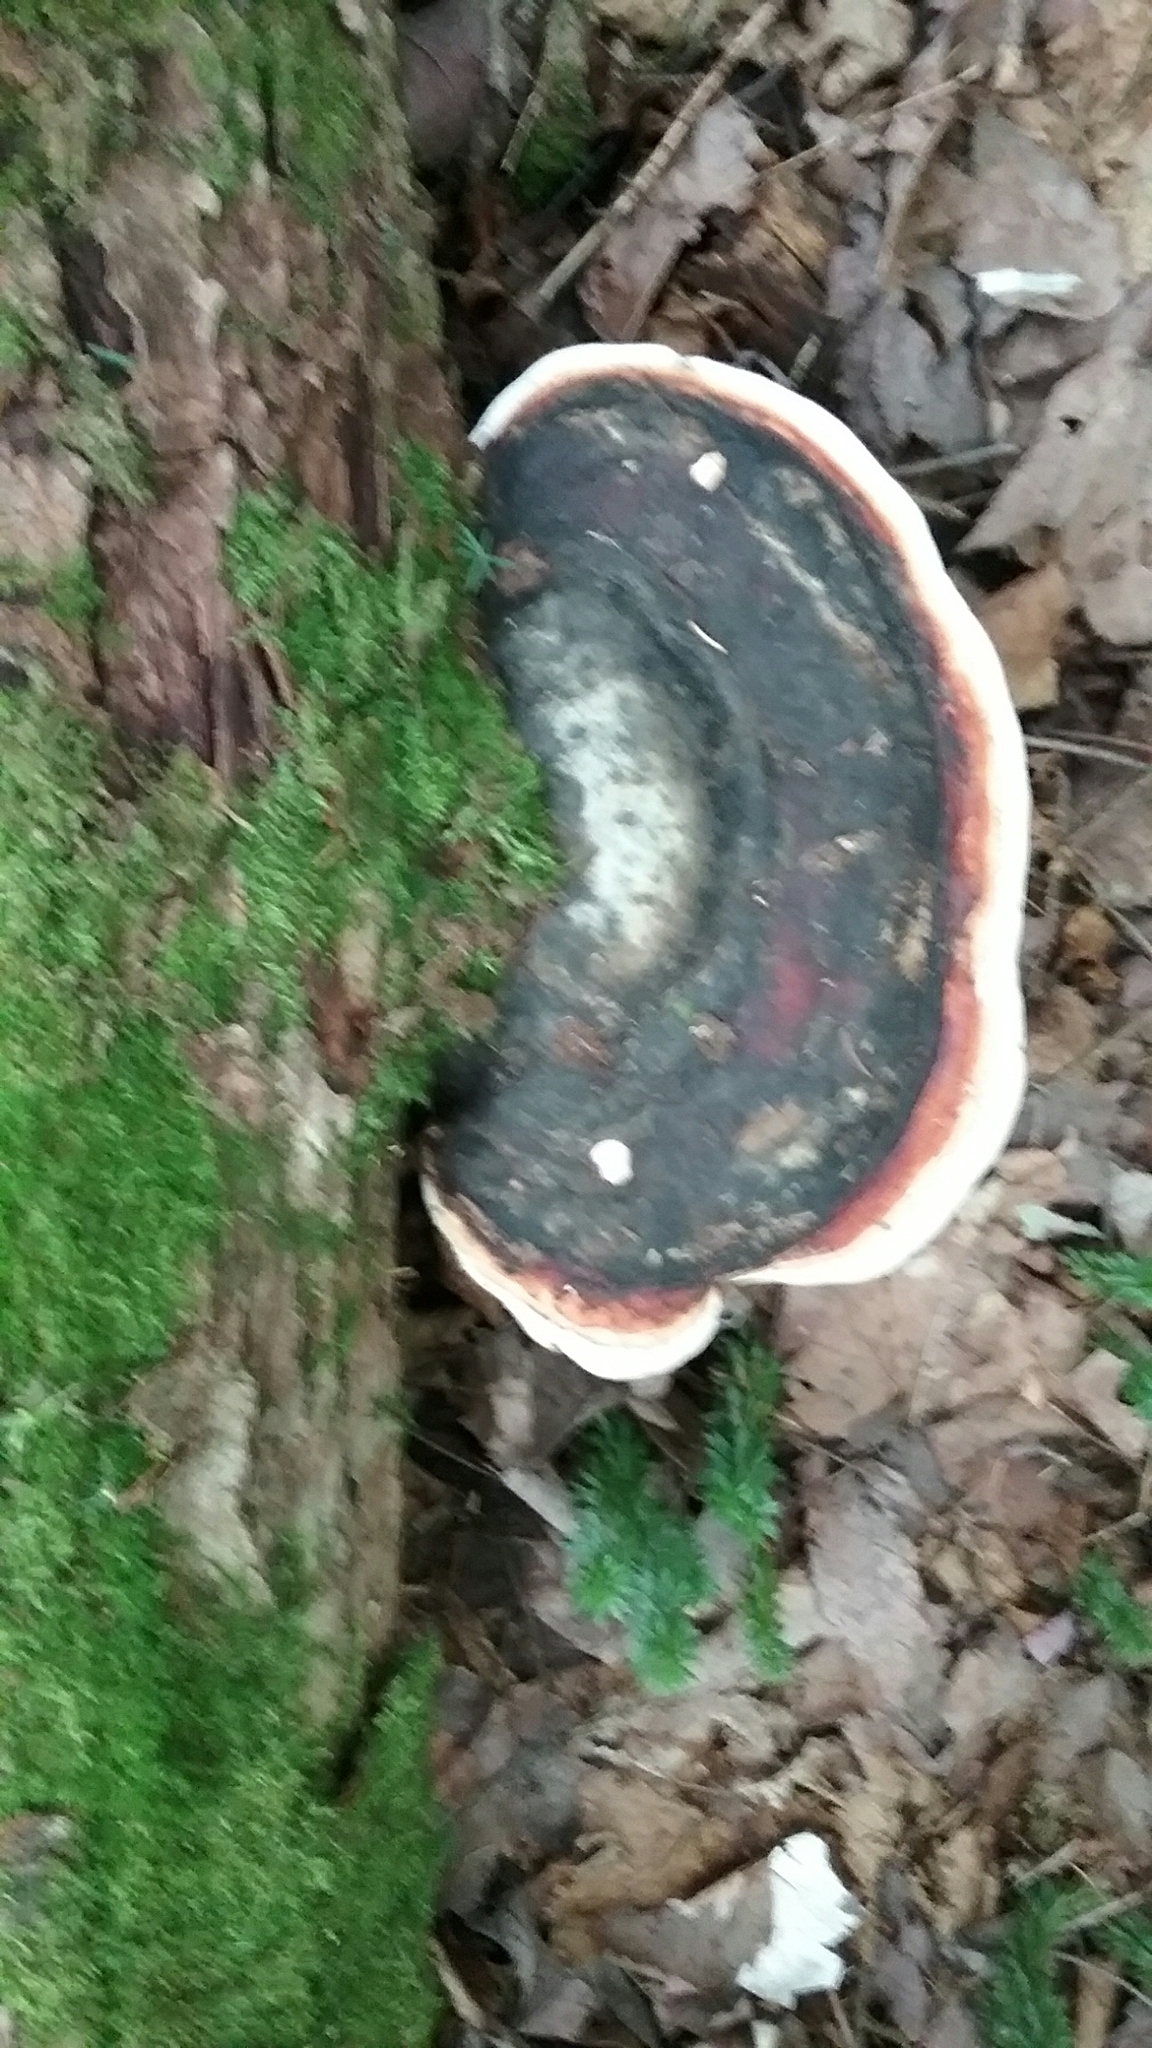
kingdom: Fungi
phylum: Basidiomycota
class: Agaricomycetes
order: Polyporales
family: Fomitopsidaceae
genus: Fomitopsis
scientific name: Fomitopsis mounceae
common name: Northern red belt
